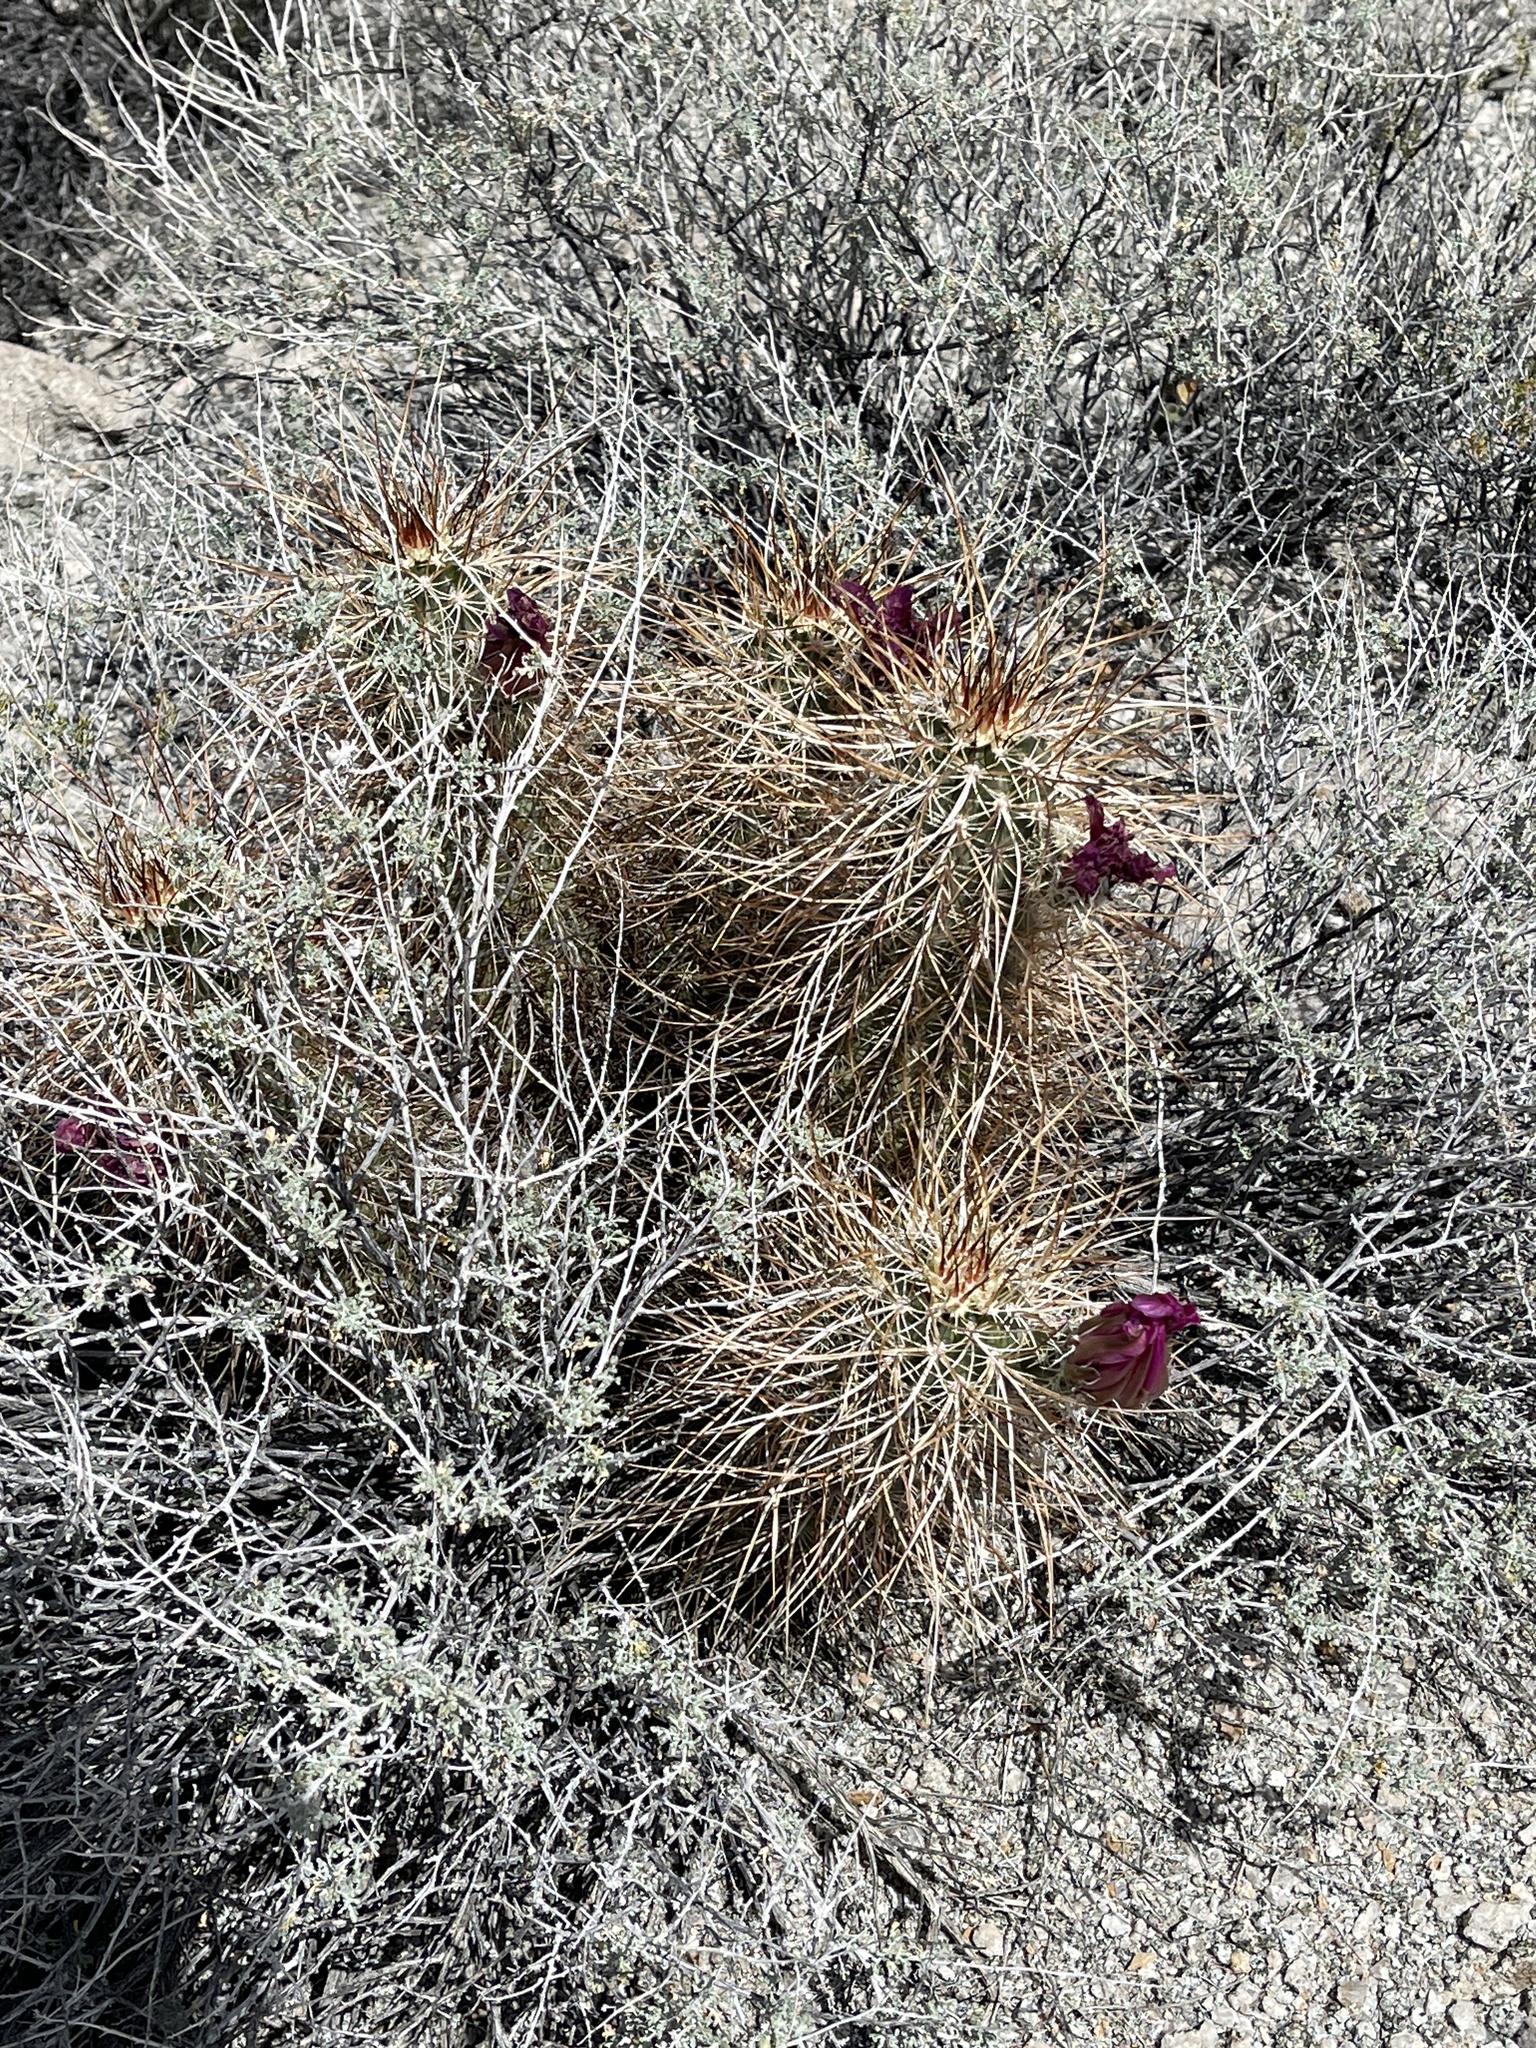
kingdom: Plantae
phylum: Tracheophyta
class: Magnoliopsida
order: Caryophyllales
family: Cactaceae
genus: Echinocereus
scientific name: Echinocereus engelmannii
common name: Engelmann's hedgehog cactus
